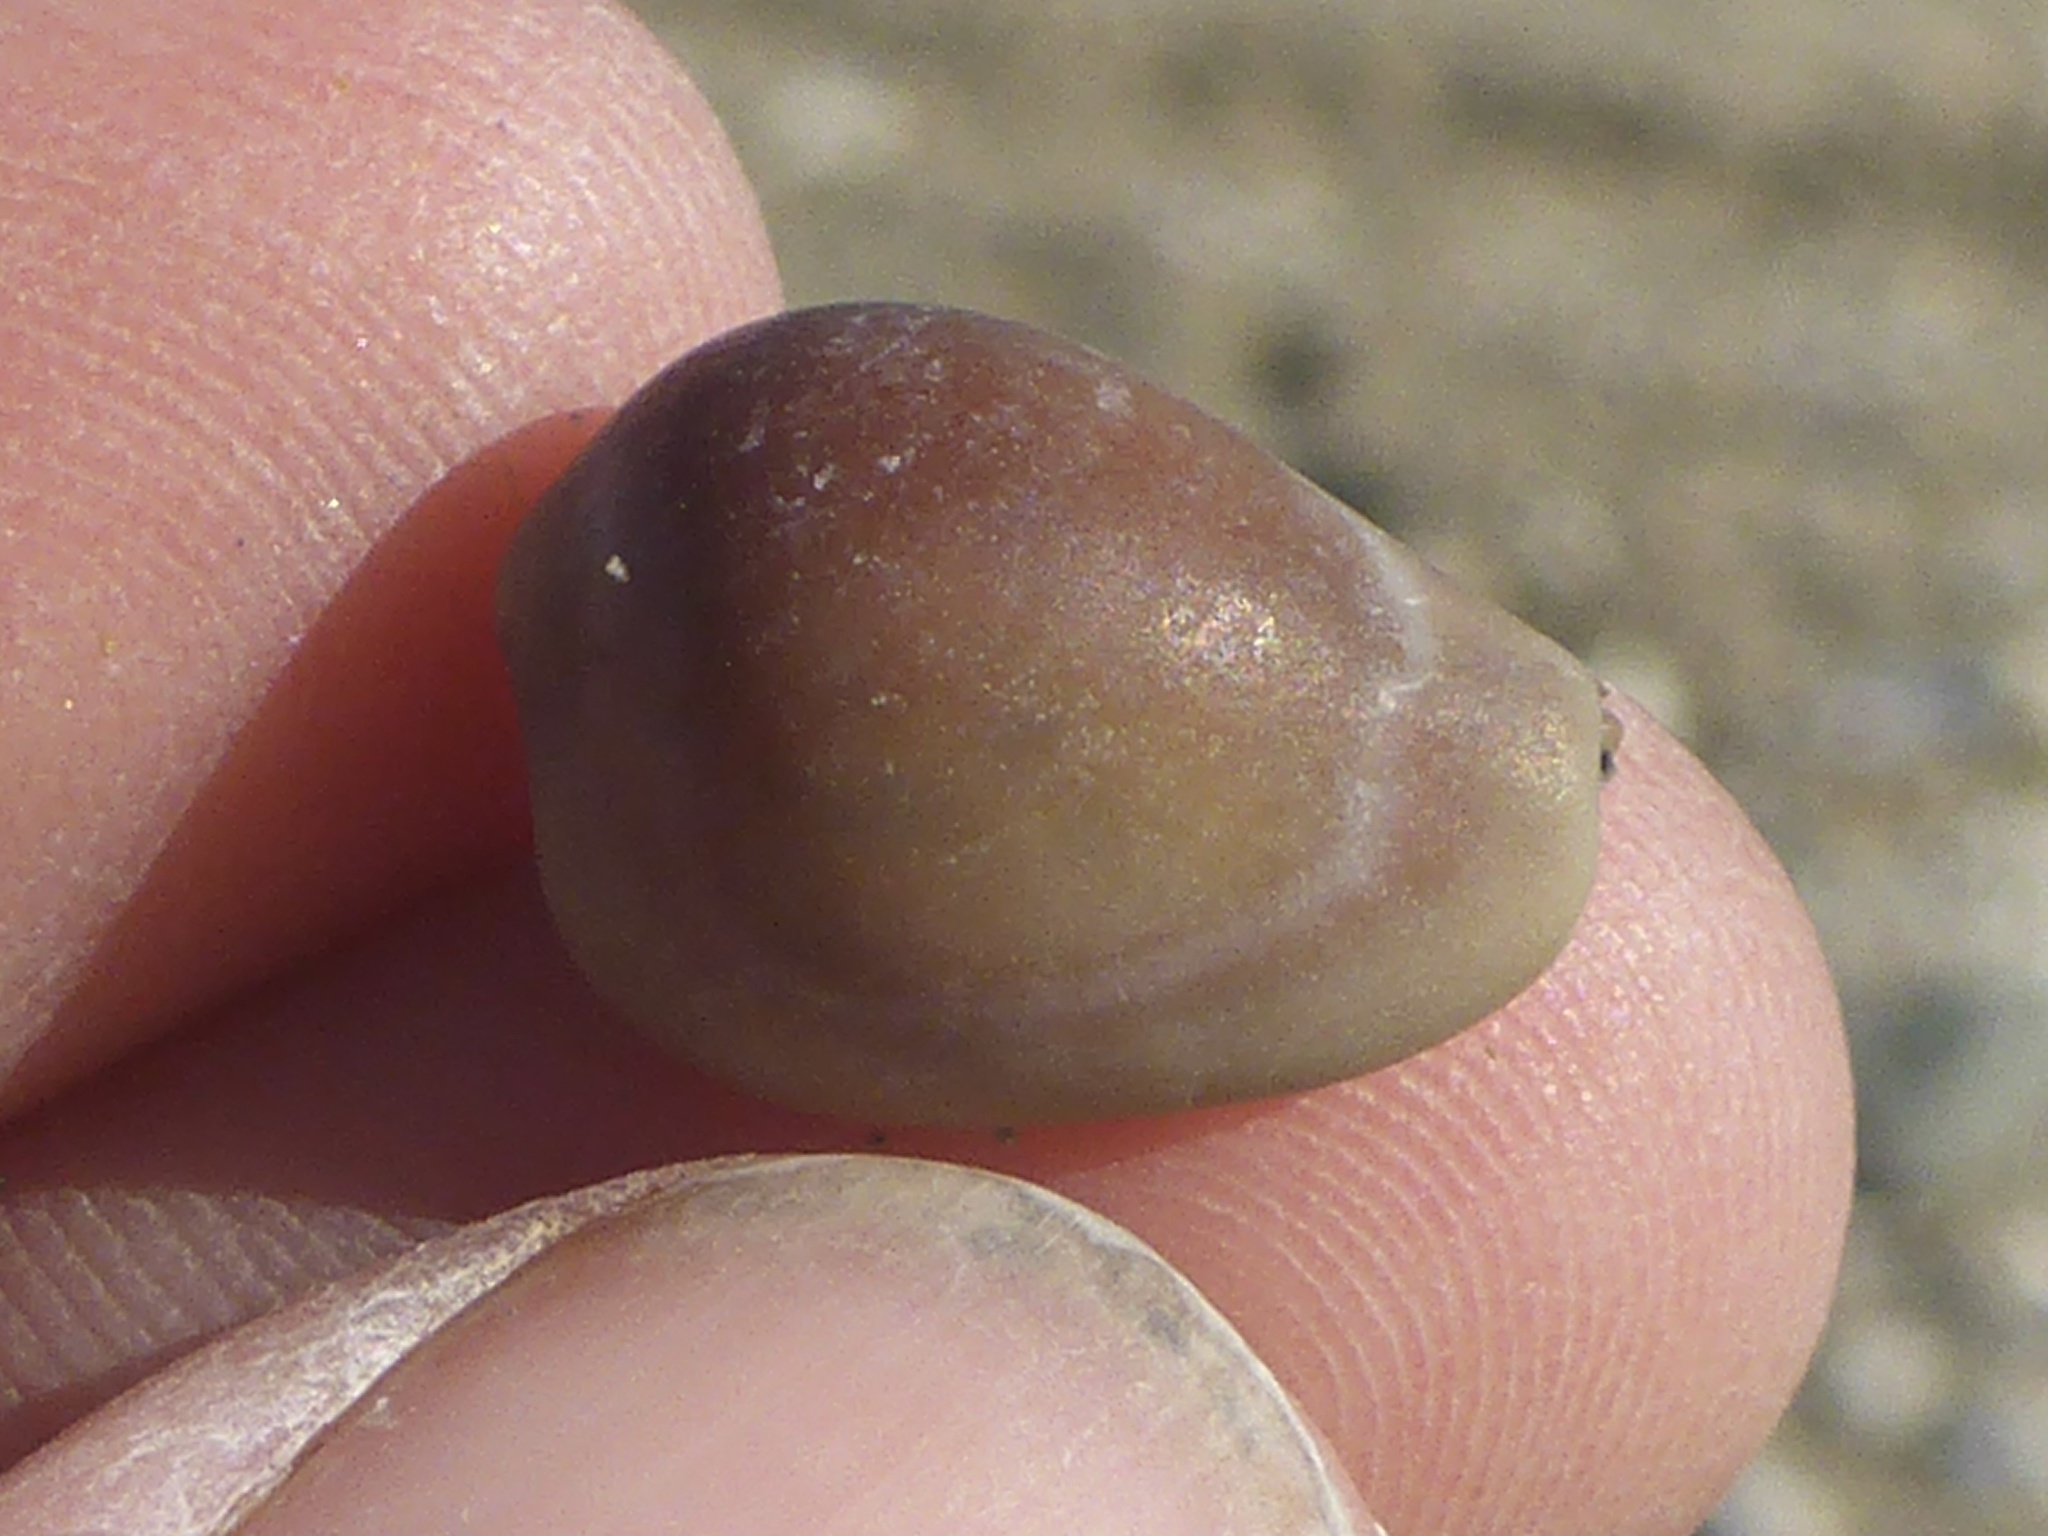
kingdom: Animalia
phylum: Mollusca
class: Gastropoda
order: Littorinimorpha
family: Eratoidae
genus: Hespererato
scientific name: Hespererato vitellina
